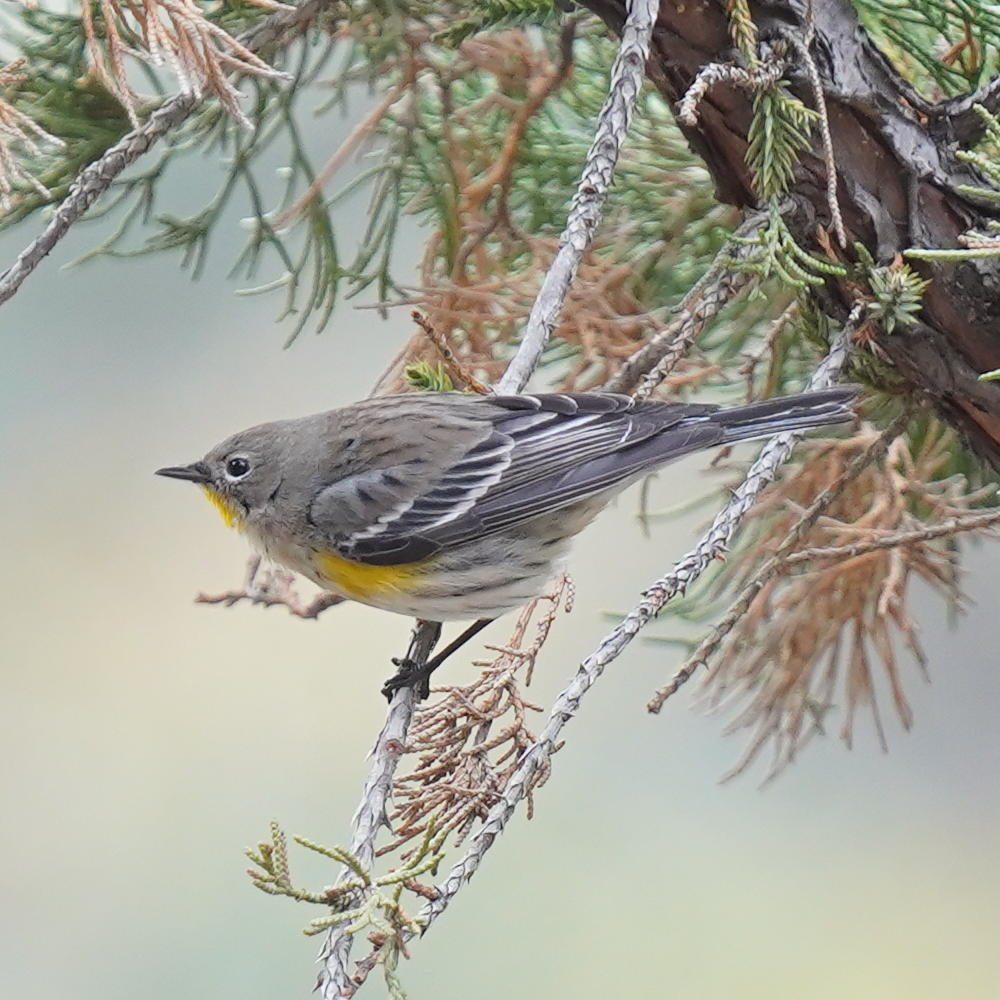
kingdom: Animalia
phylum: Chordata
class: Aves
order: Passeriformes
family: Parulidae
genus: Setophaga
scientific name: Setophaga auduboni
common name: Audubon's warbler
